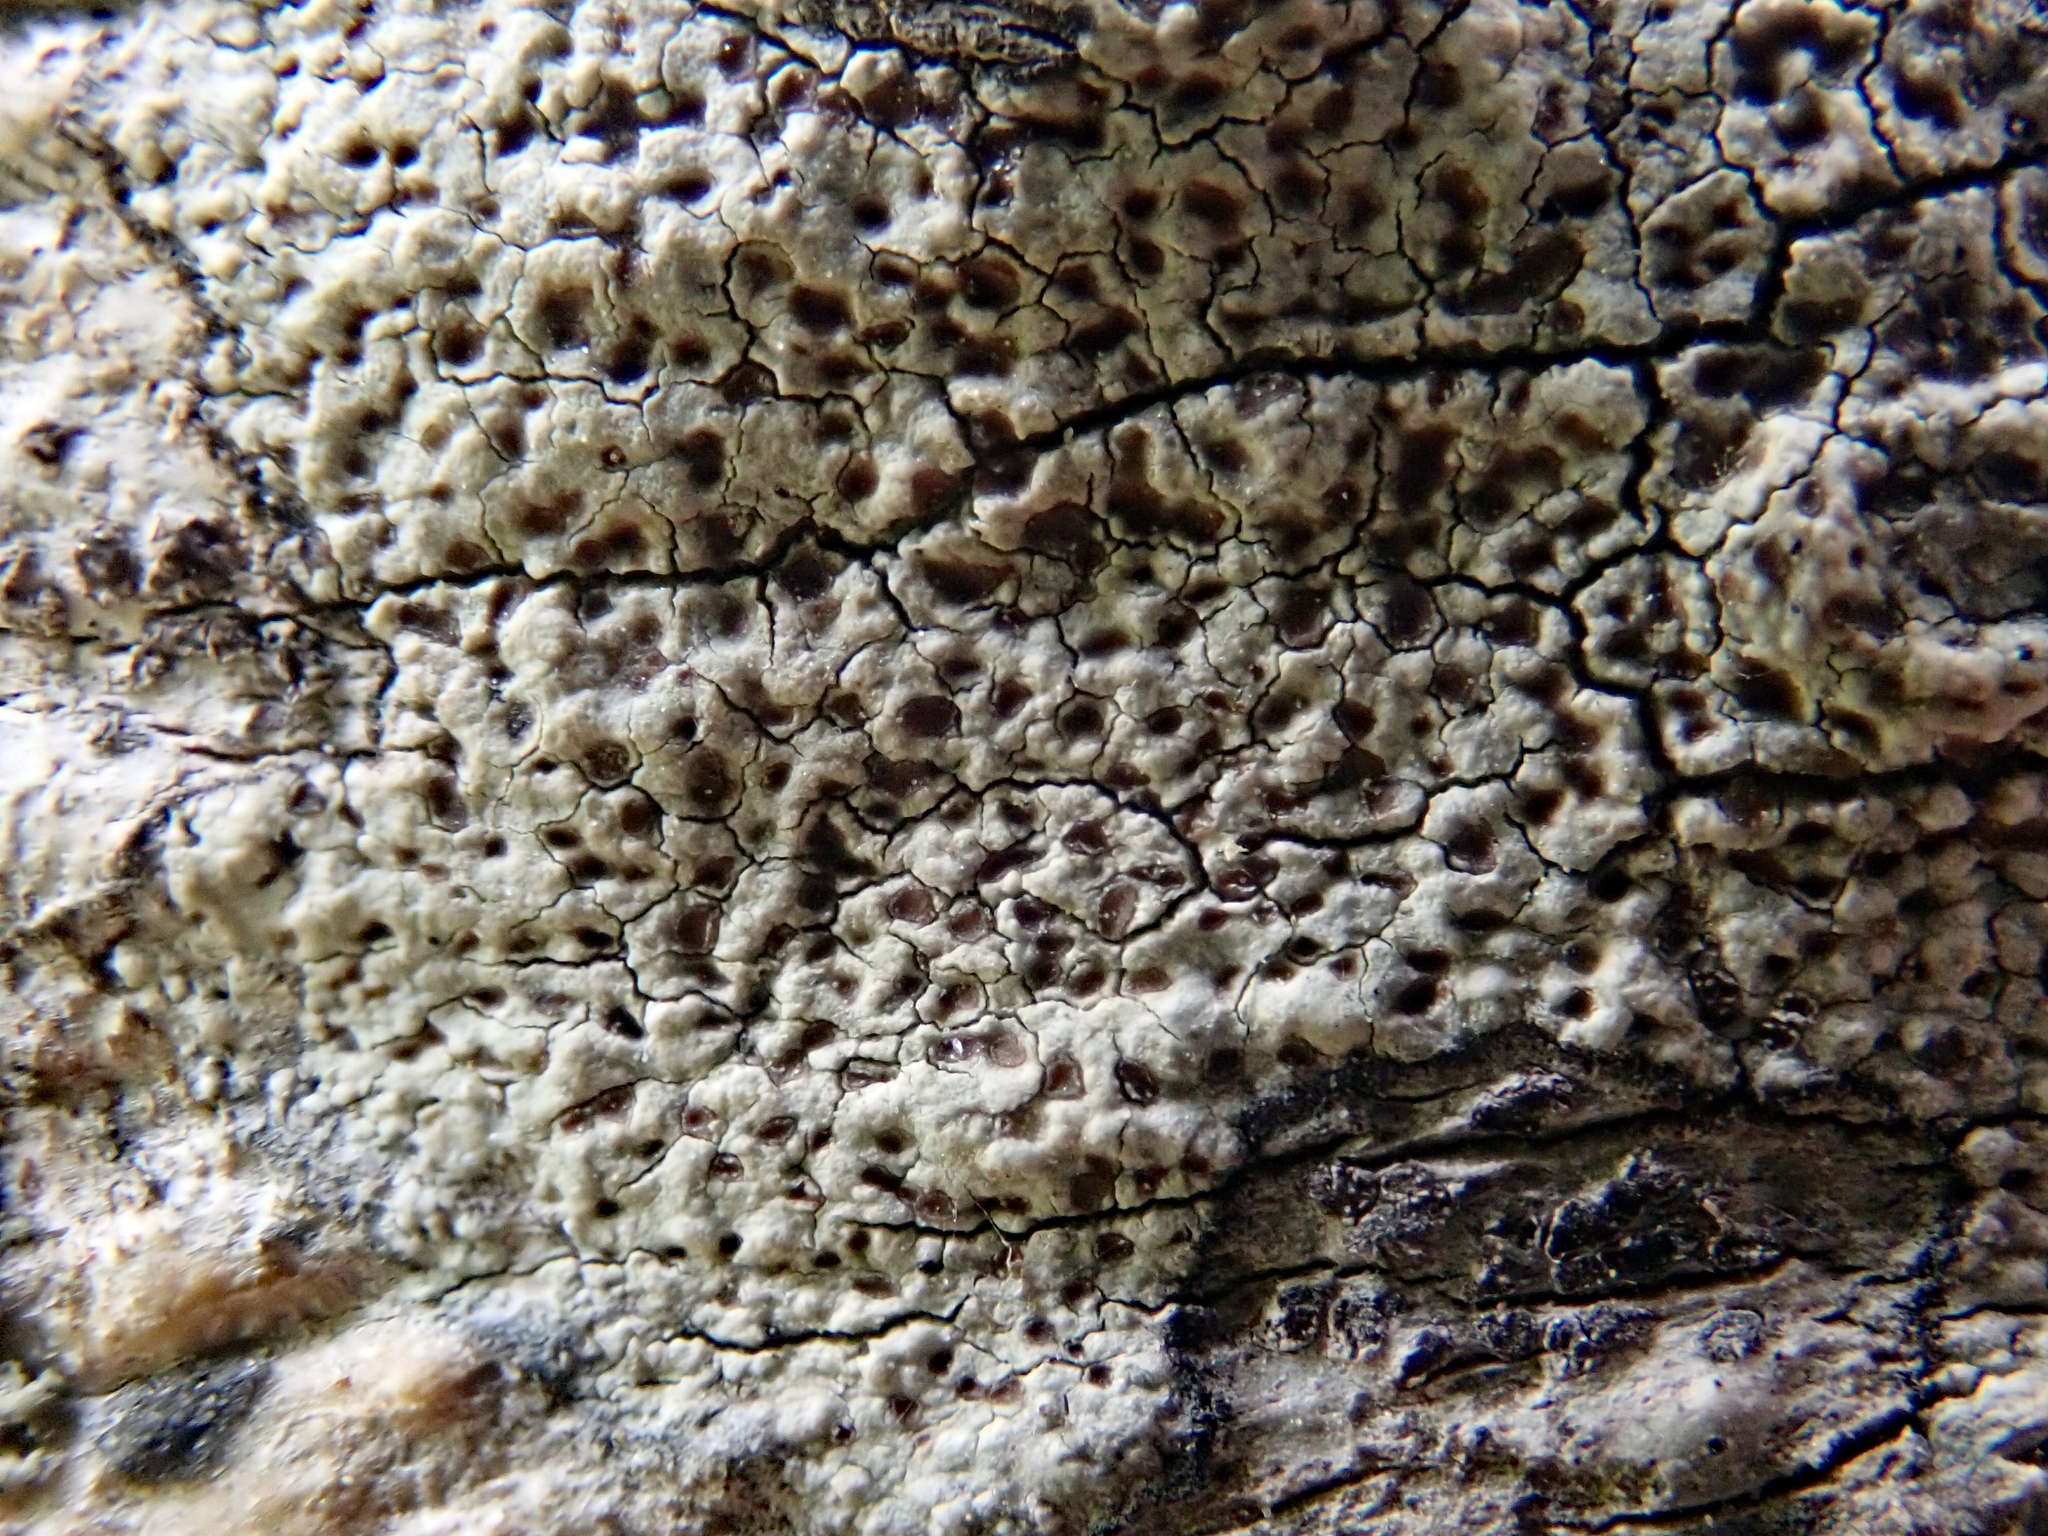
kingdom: Fungi
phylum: Ascomycota
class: Lecanoromycetes
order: Lecanorales
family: Lecanoraceae
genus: Lecanora
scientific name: Lecanora kohu
